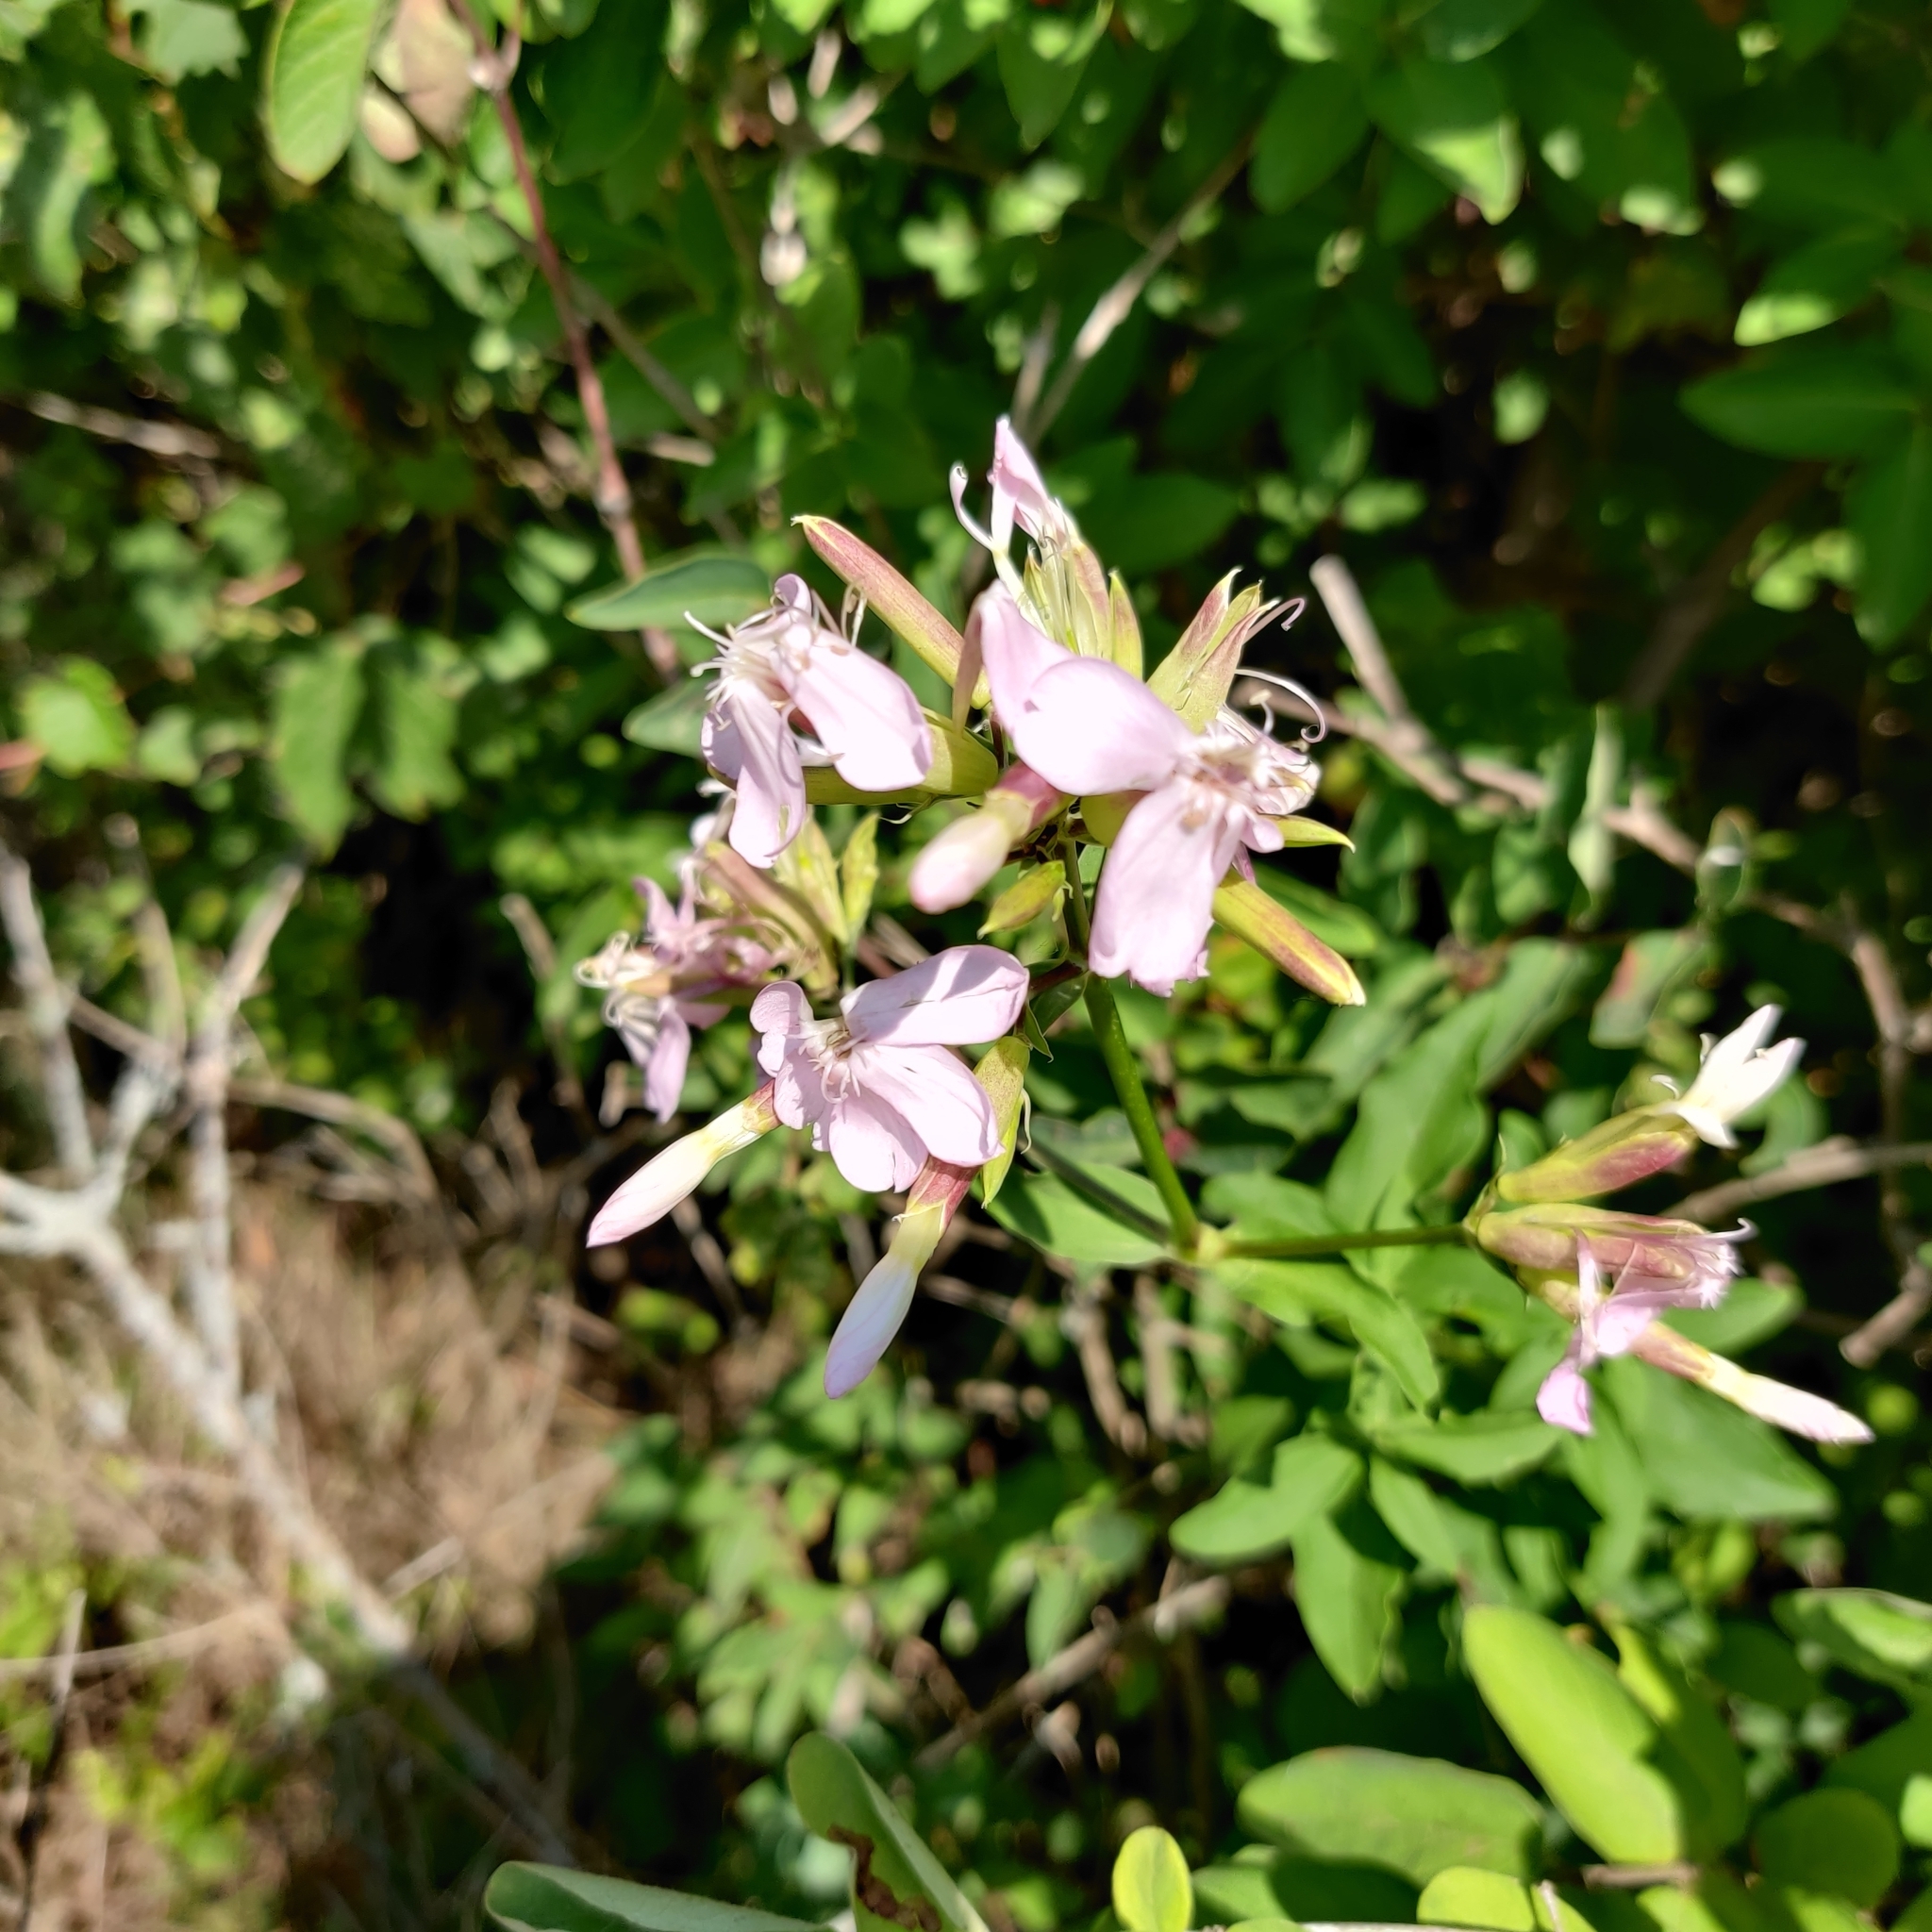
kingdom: Plantae
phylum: Tracheophyta
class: Magnoliopsida
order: Caryophyllales
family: Caryophyllaceae
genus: Saponaria
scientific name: Saponaria officinalis
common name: Soapwort
